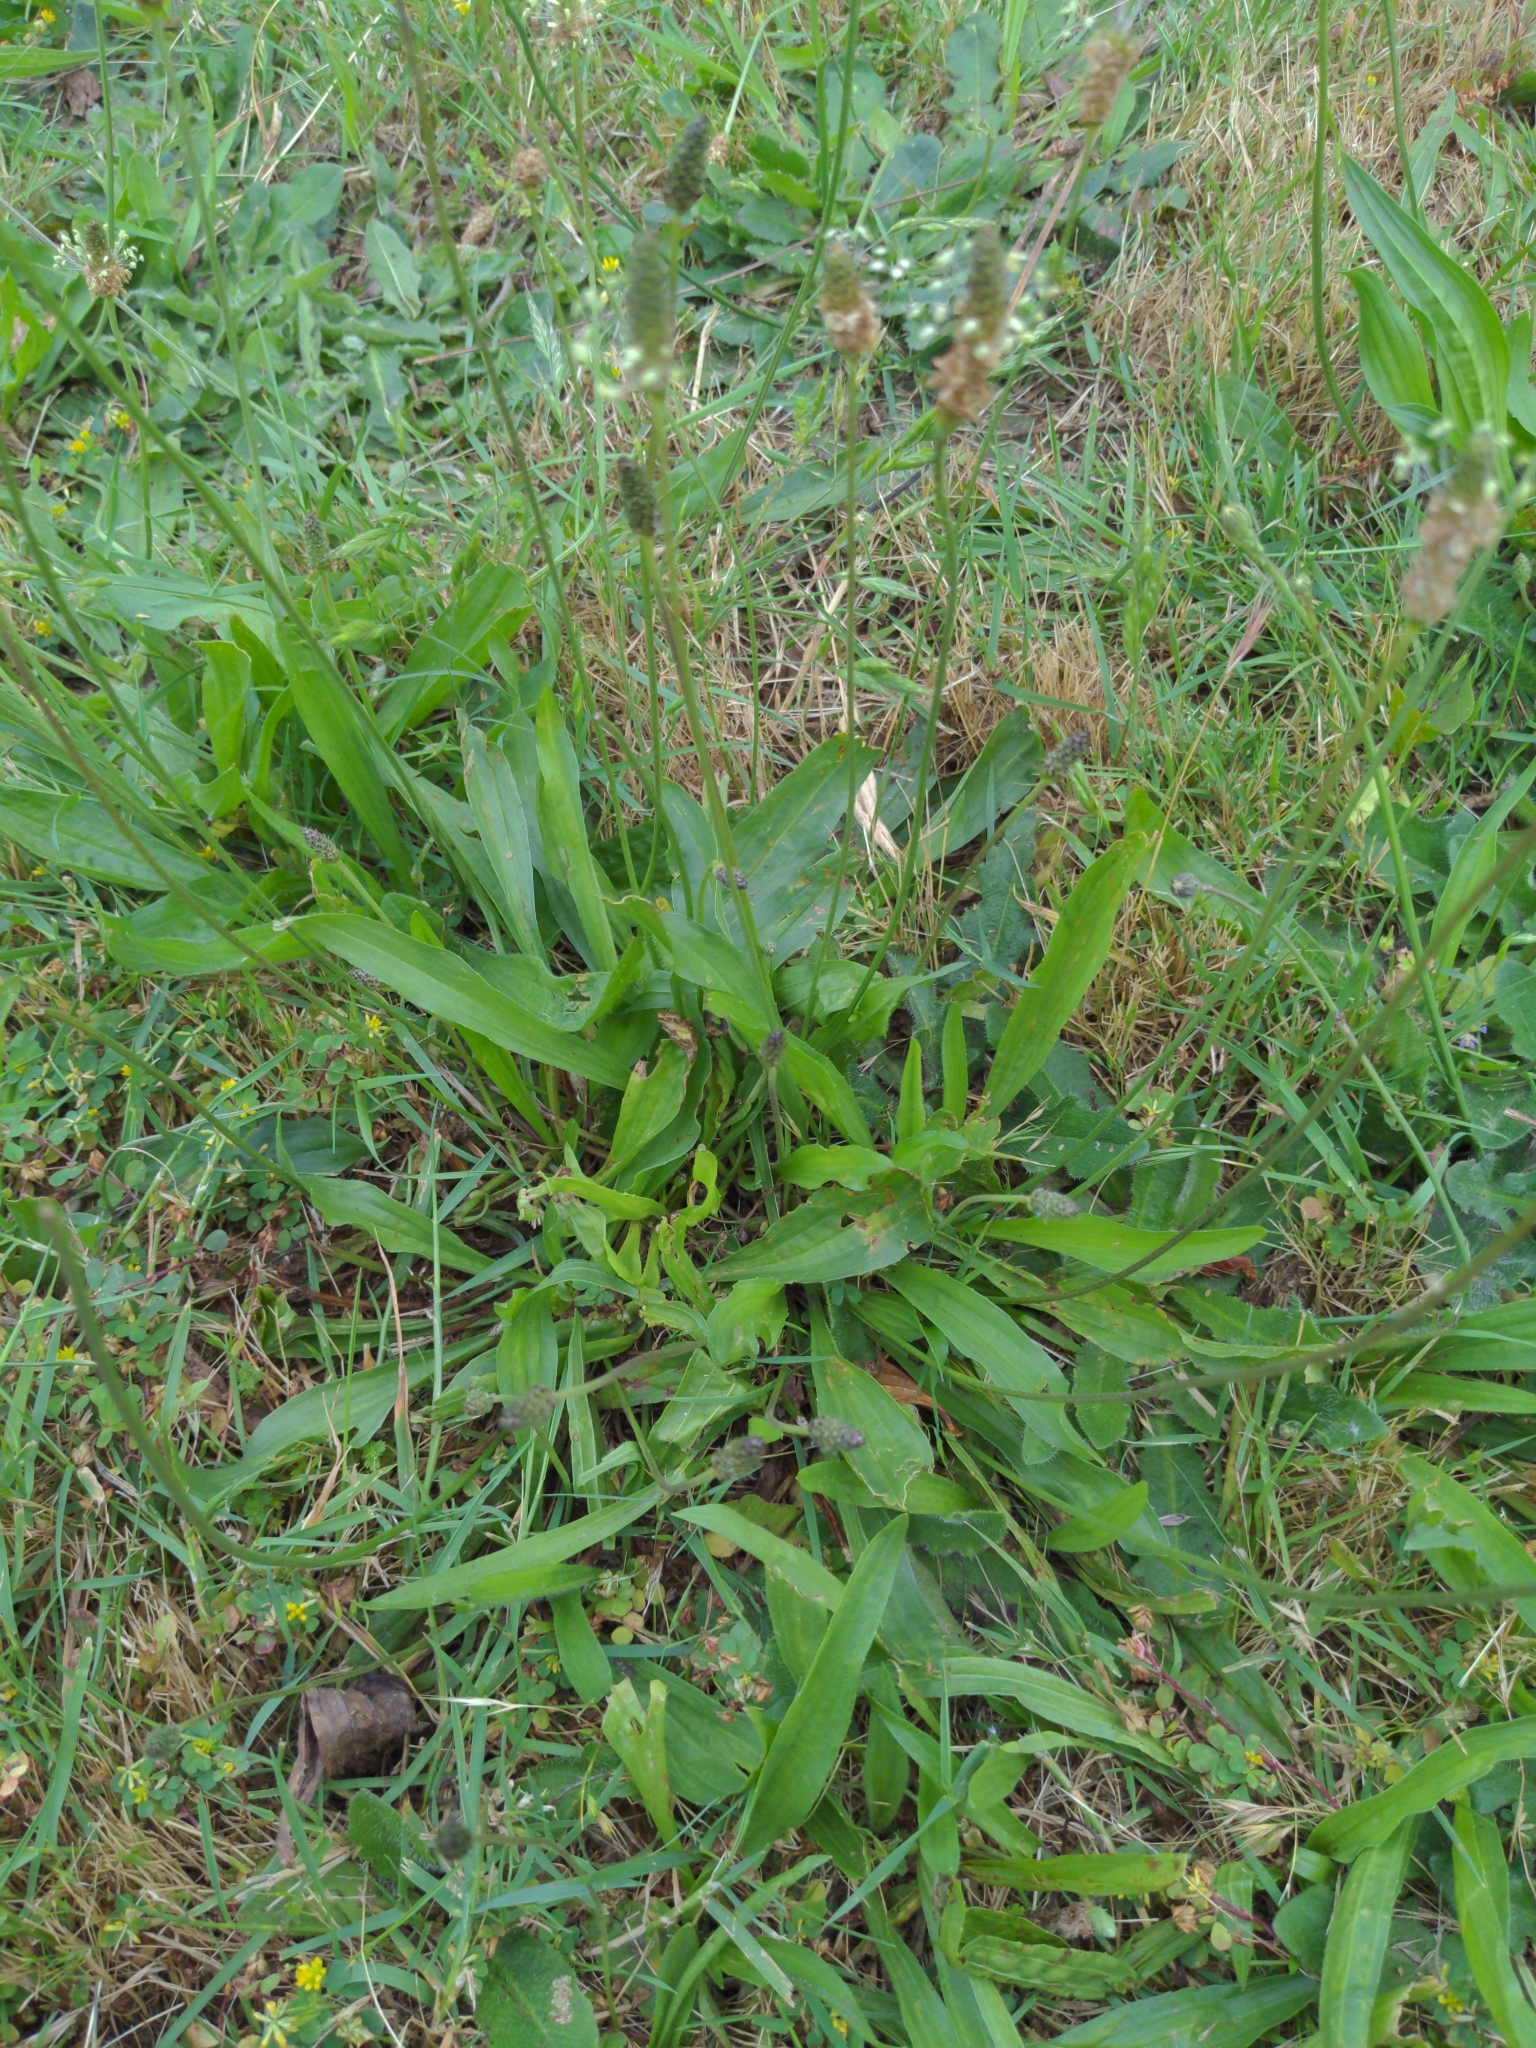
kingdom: Plantae
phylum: Tracheophyta
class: Magnoliopsida
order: Lamiales
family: Plantaginaceae
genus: Plantago
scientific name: Plantago lanceolata
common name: Ribwort plantain
